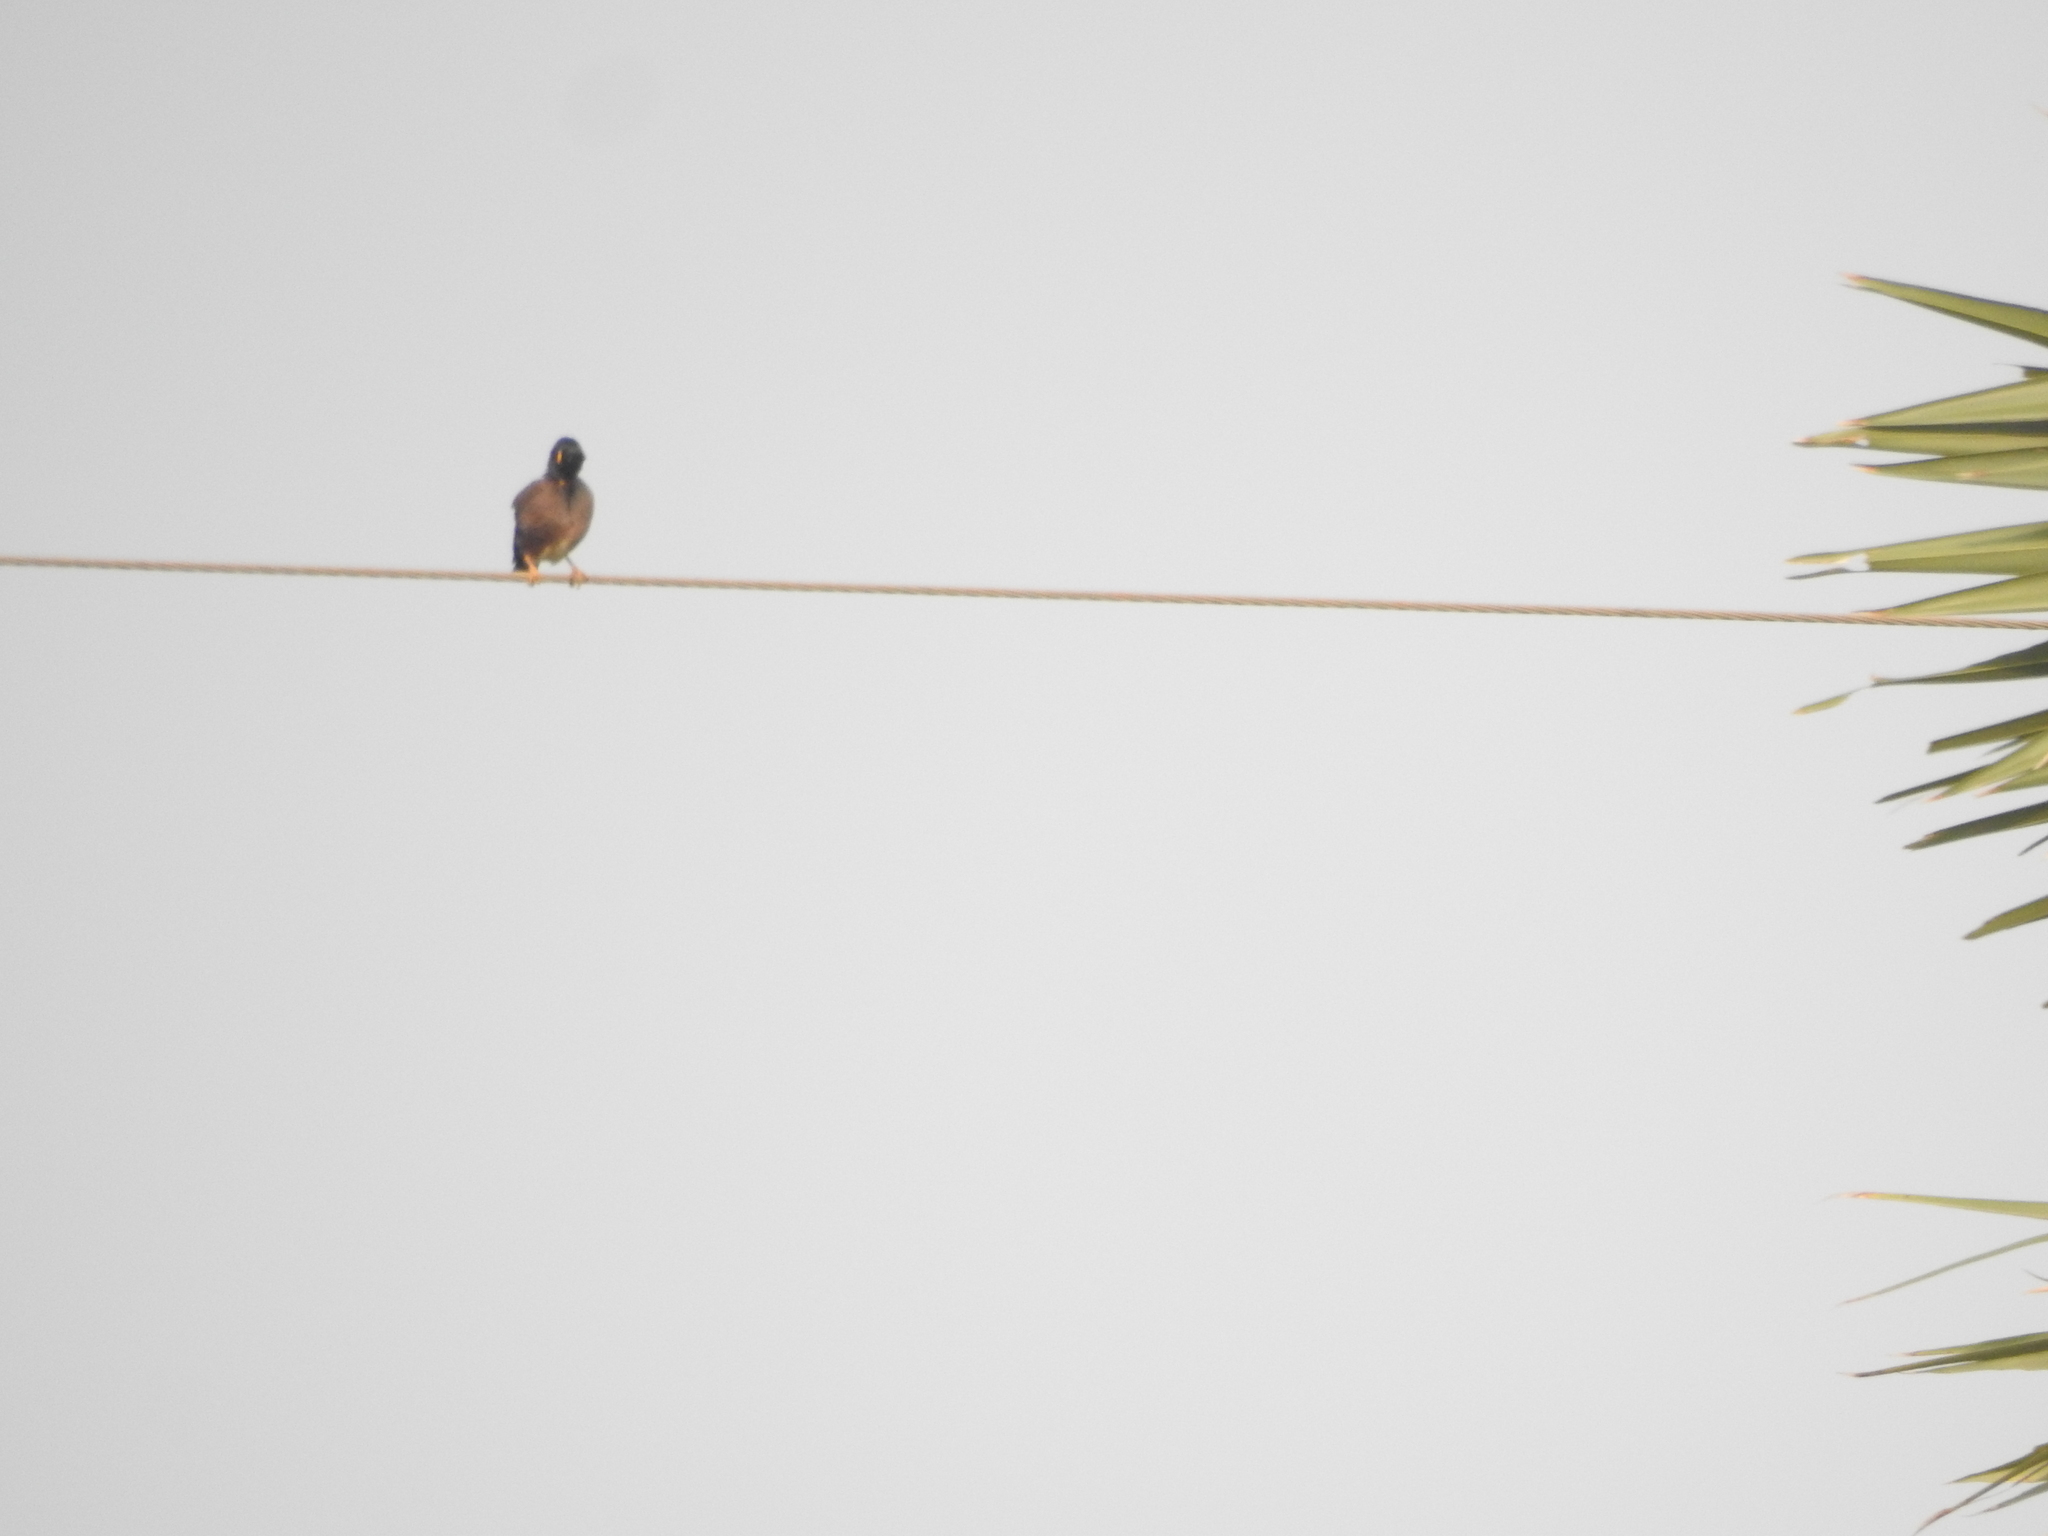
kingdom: Animalia
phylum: Chordata
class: Aves
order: Passeriformes
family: Sturnidae
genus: Acridotheres
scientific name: Acridotheres tristis
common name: Common myna
